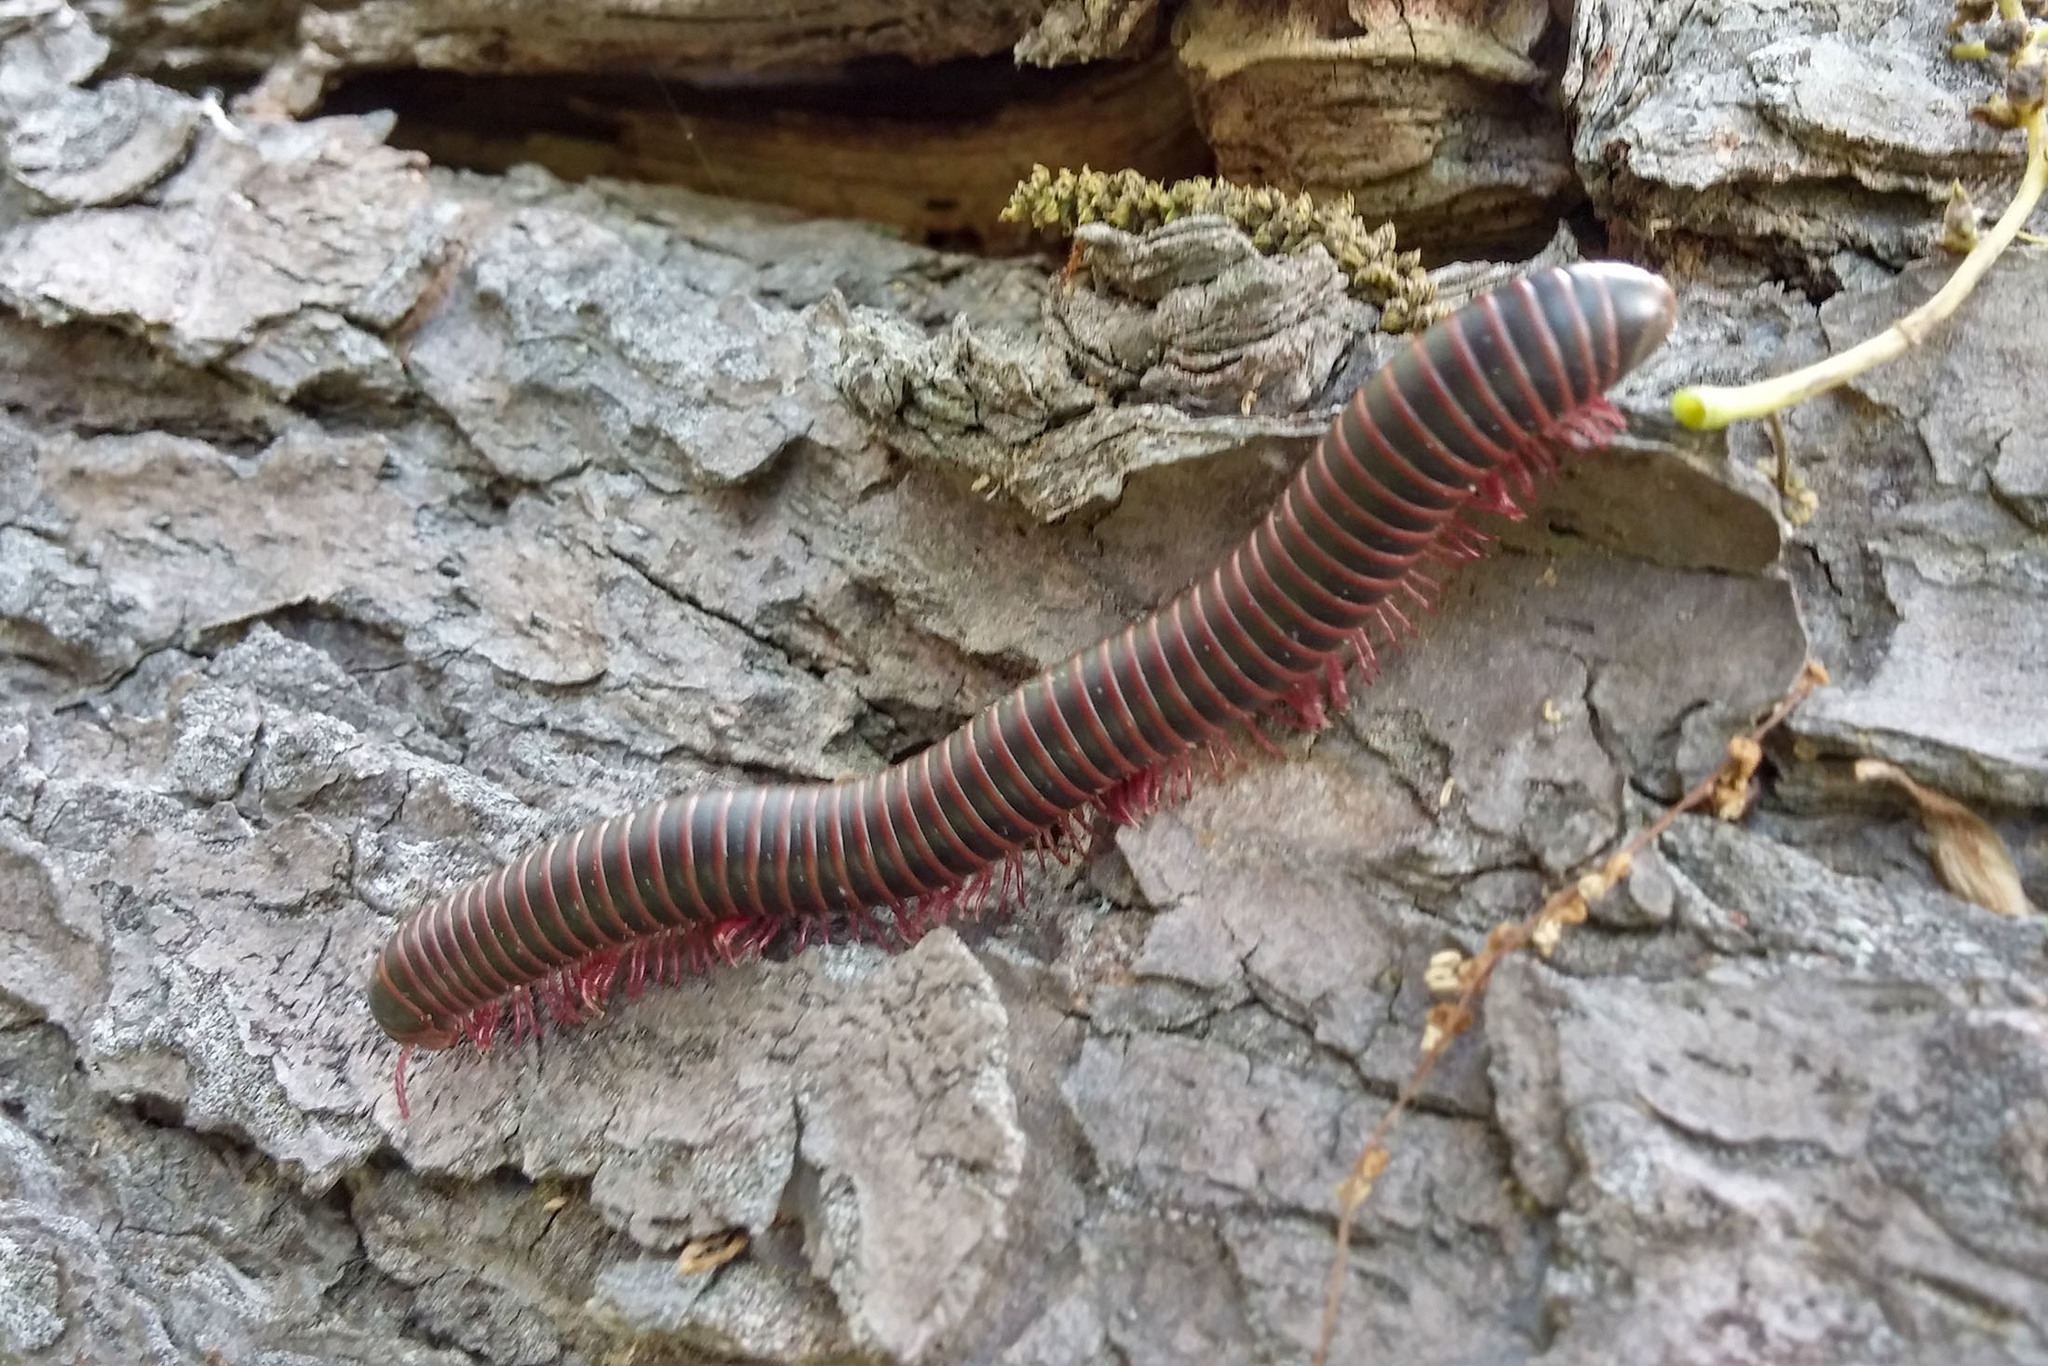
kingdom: Animalia
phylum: Arthropoda
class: Diplopoda
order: Spirobolida
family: Spirobolidae
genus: Narceus
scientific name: Narceus
